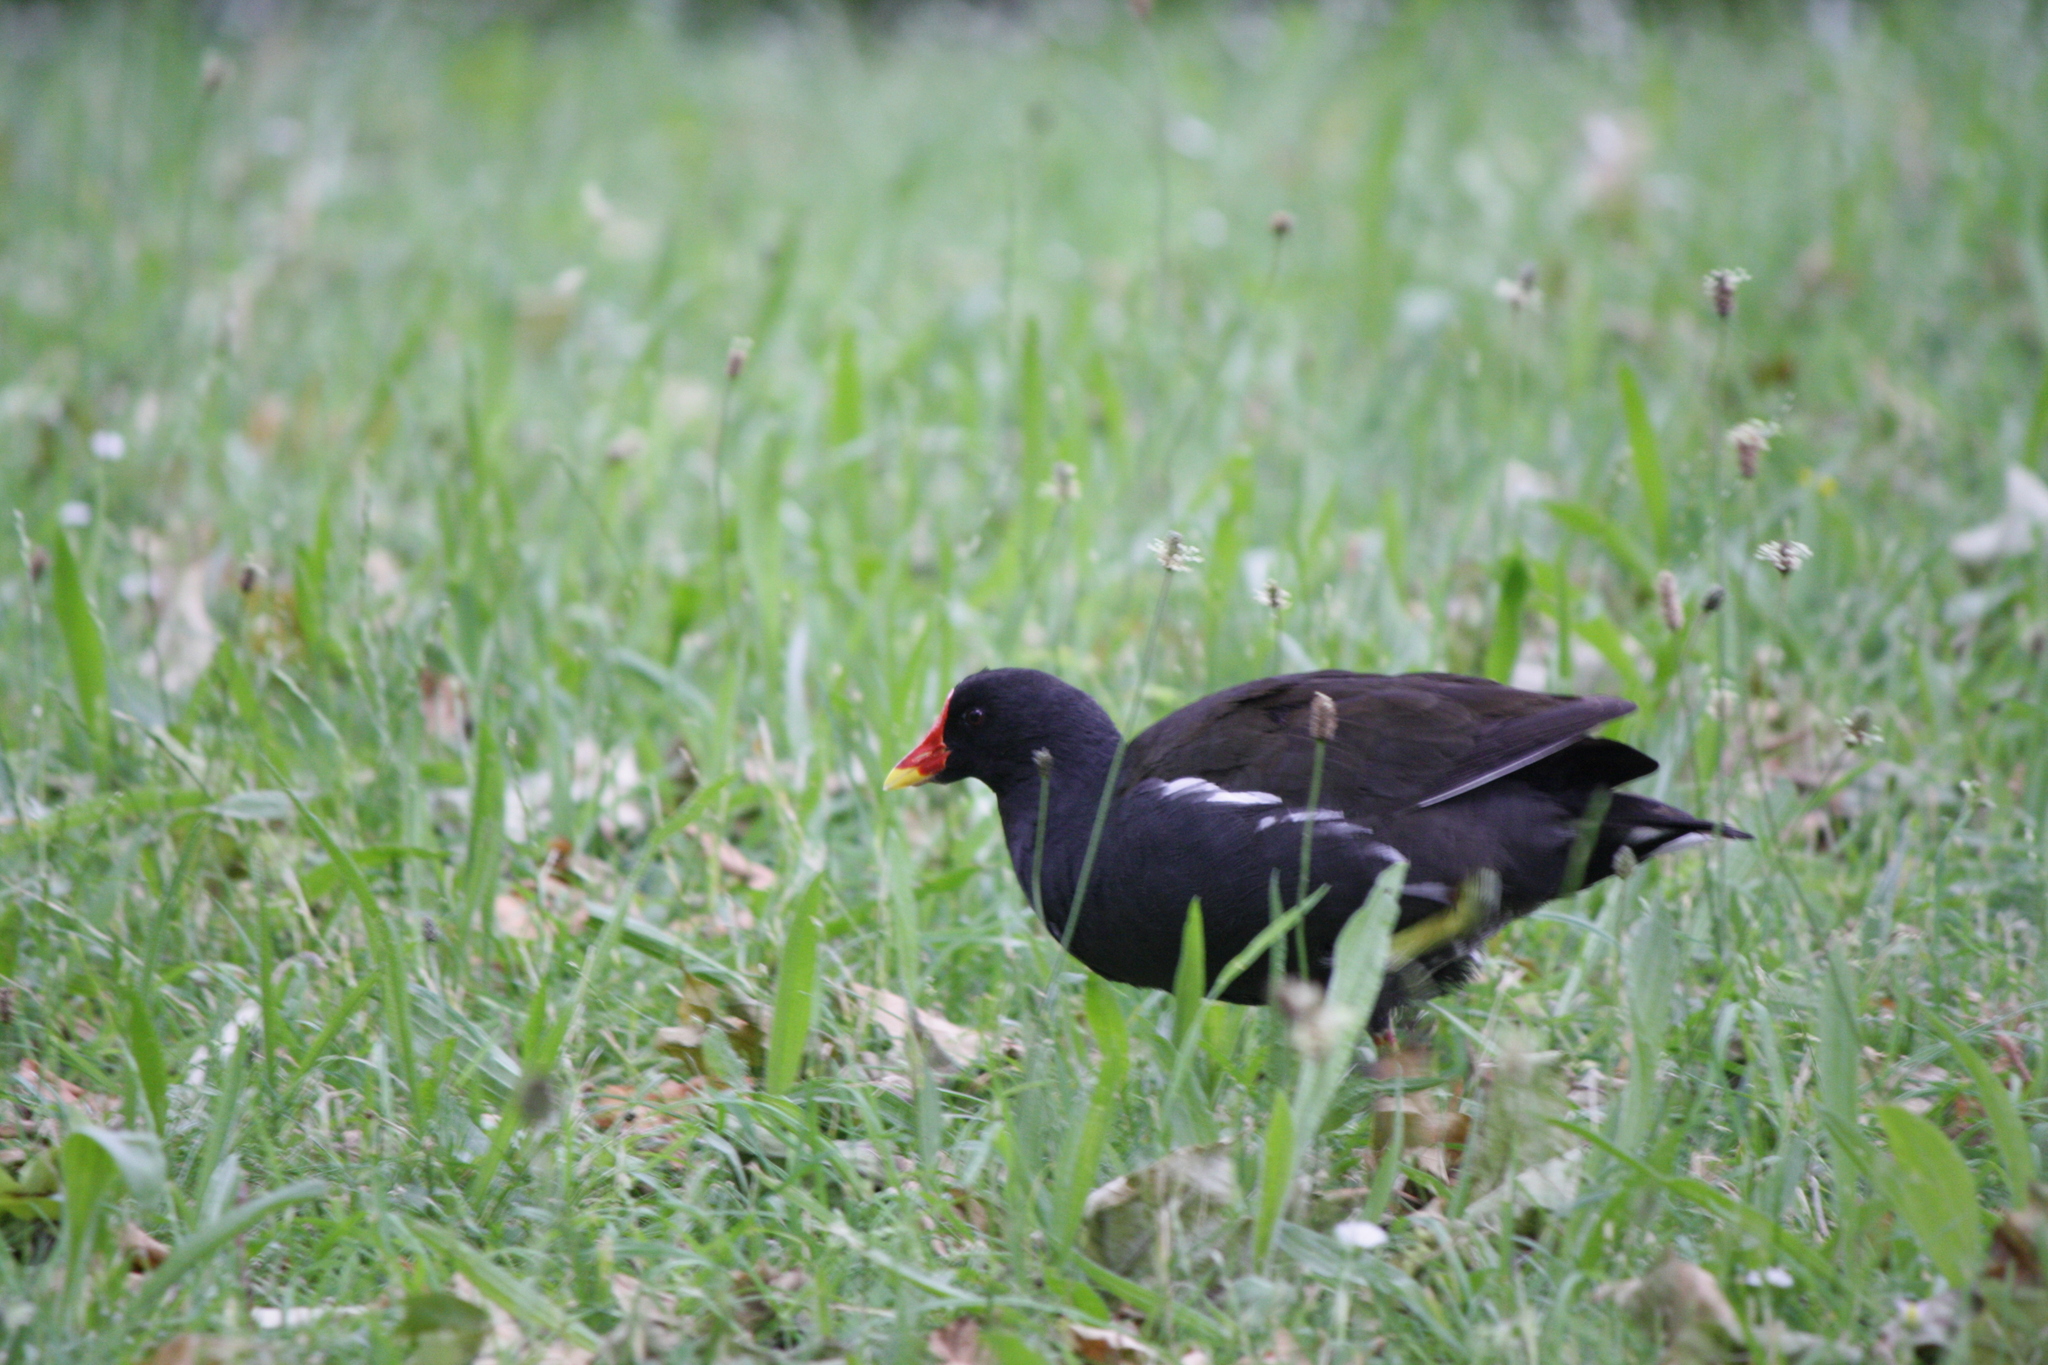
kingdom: Animalia
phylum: Chordata
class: Aves
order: Gruiformes
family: Rallidae
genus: Gallinula
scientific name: Gallinula chloropus
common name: Common moorhen
